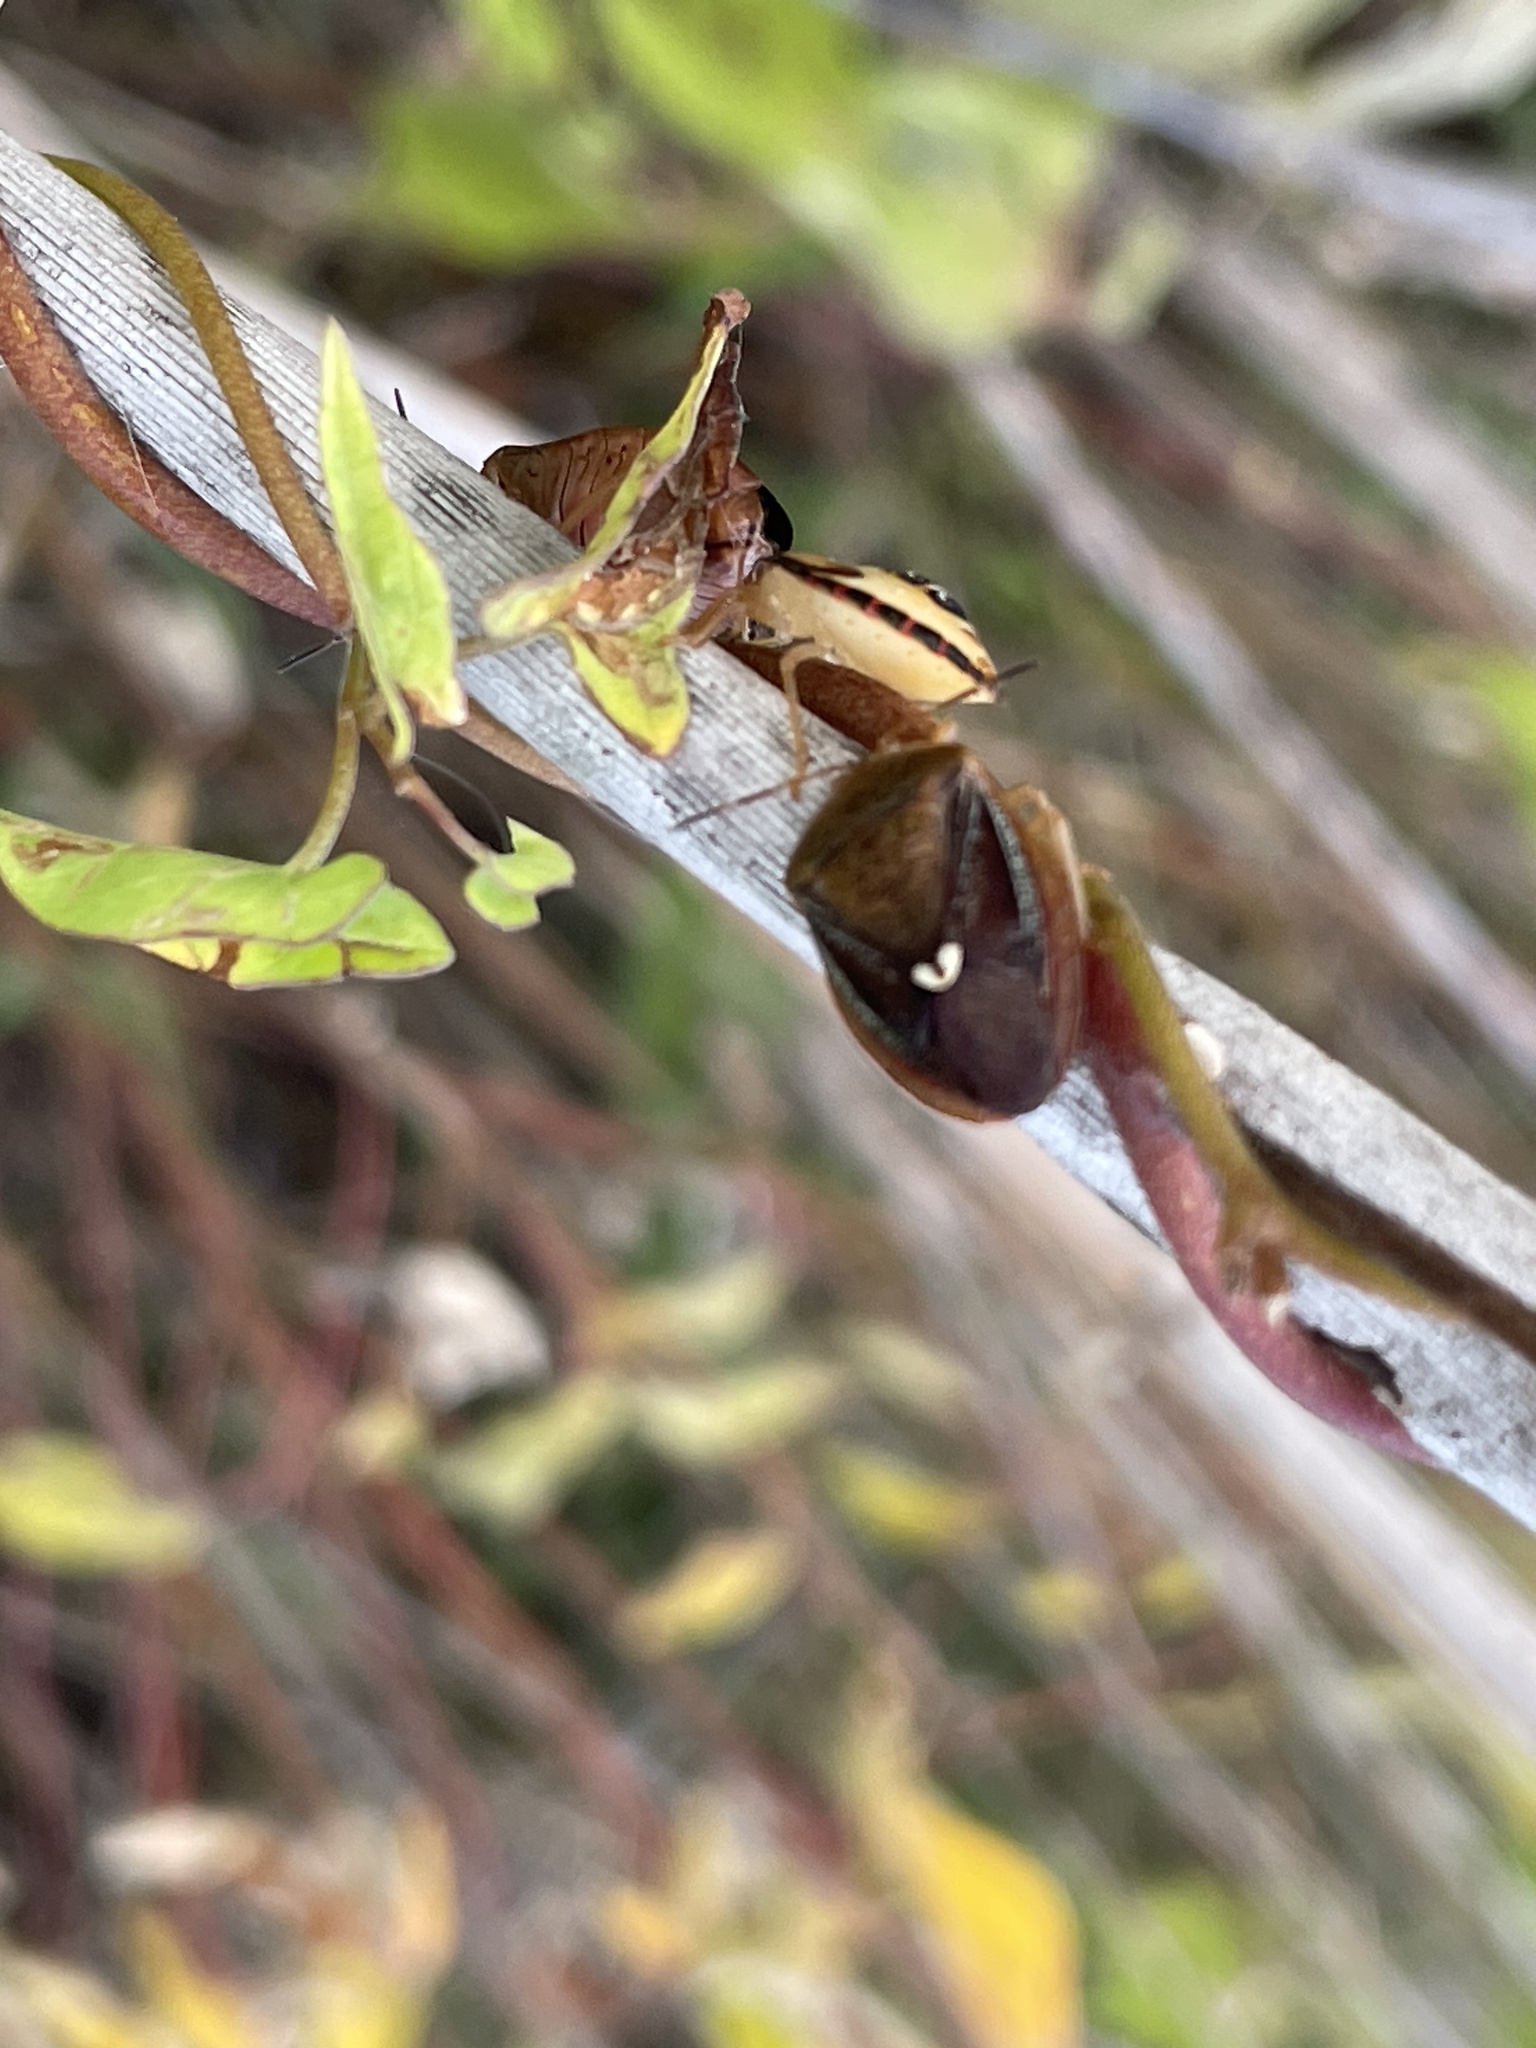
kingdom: Animalia
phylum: Arthropoda
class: Insecta
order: Hemiptera
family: Pentatomidae
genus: Edessa
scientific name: Edessa bifida
